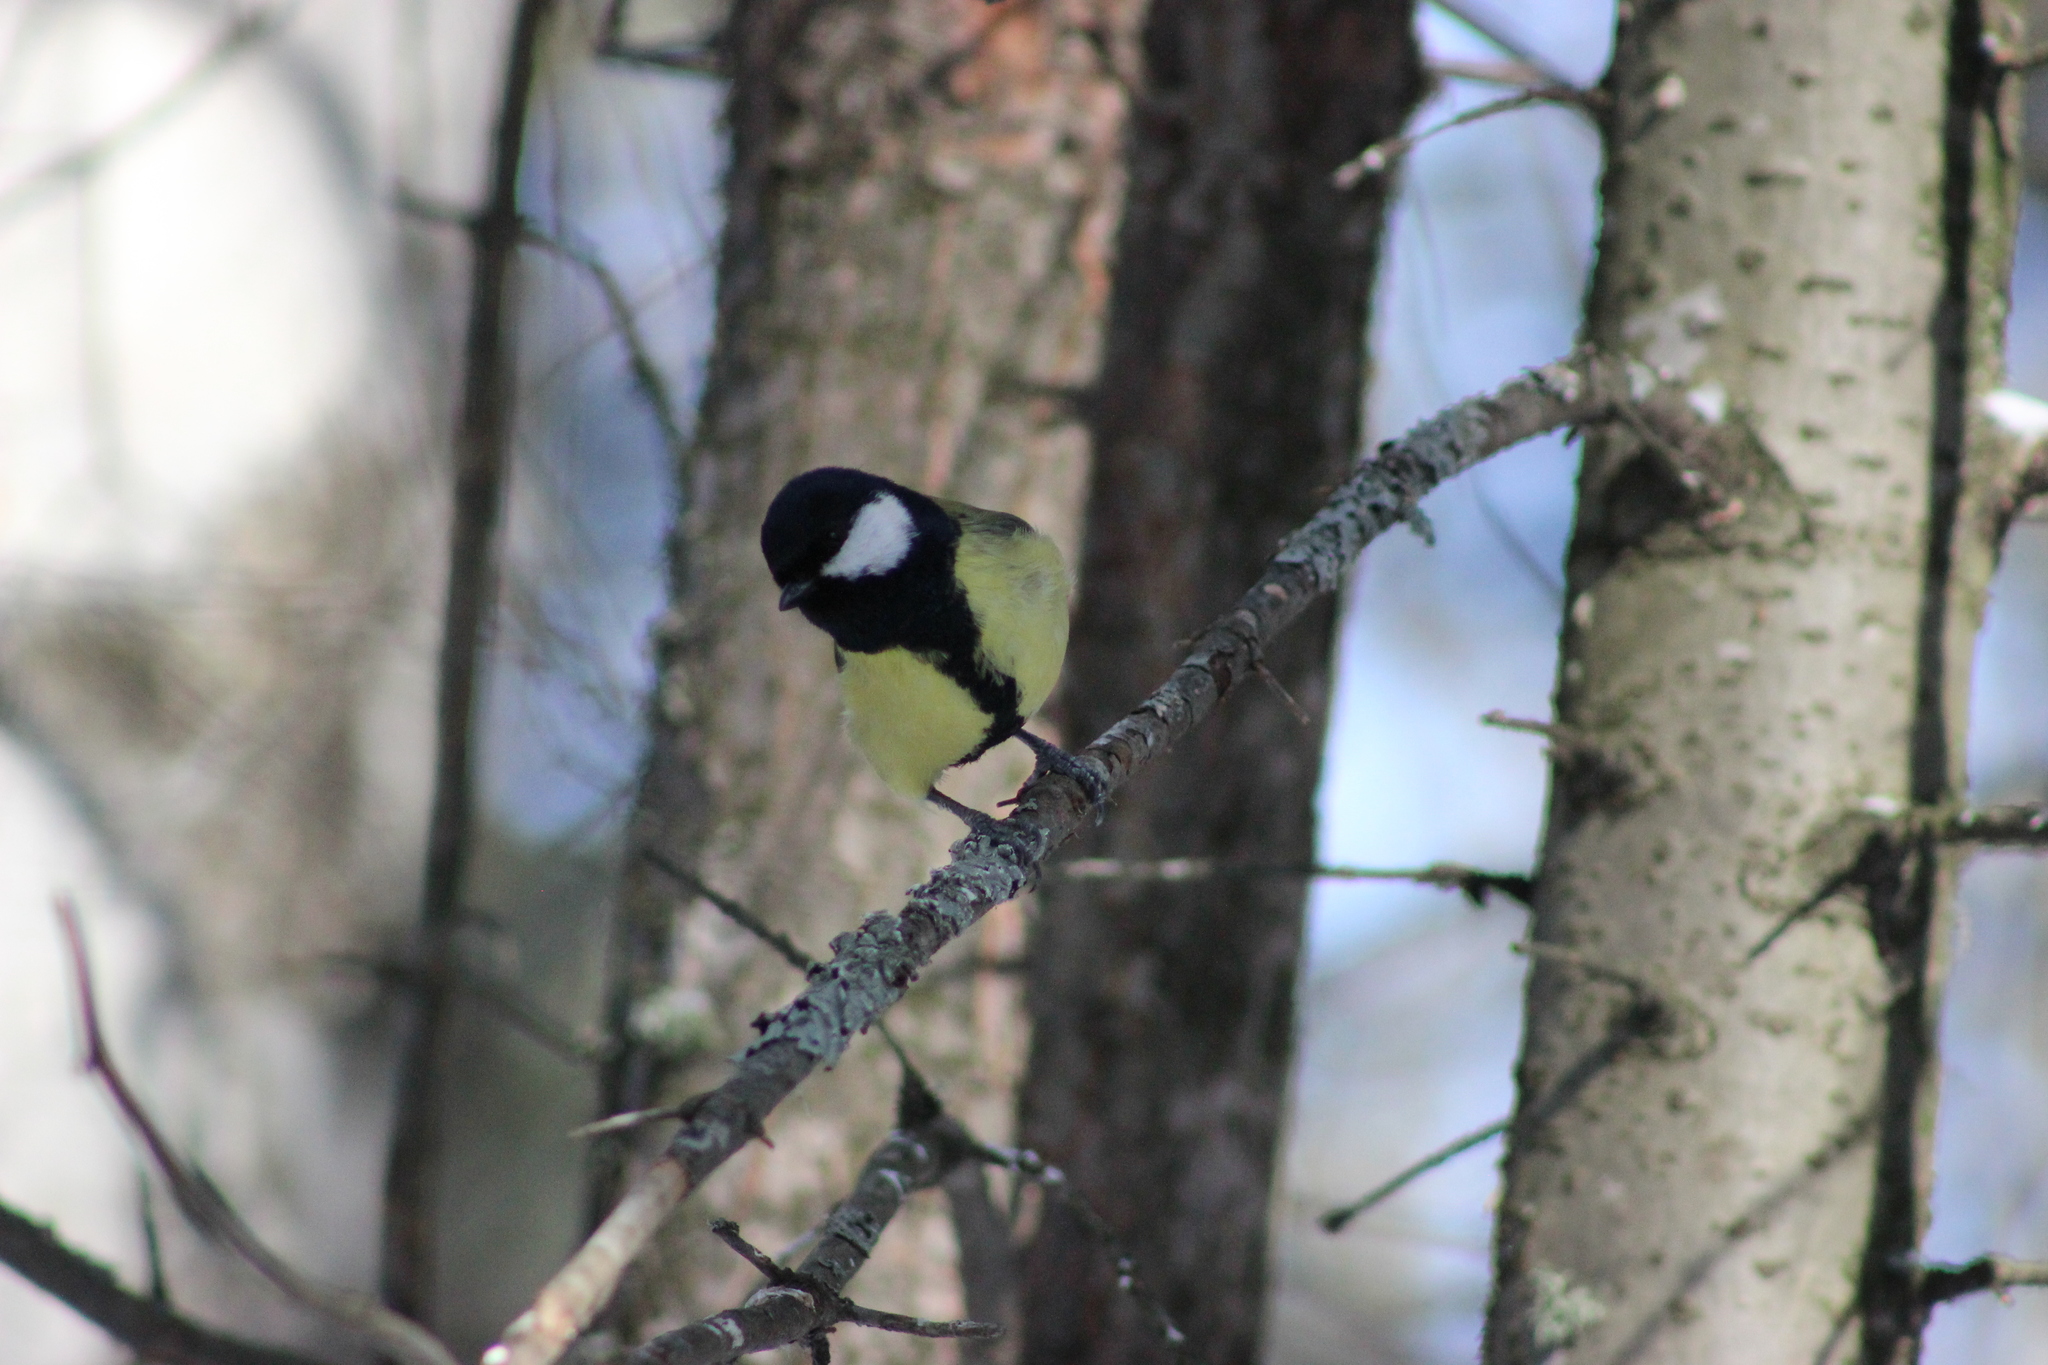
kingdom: Animalia
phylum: Chordata
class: Aves
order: Passeriformes
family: Paridae
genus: Parus
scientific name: Parus major
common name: Great tit
